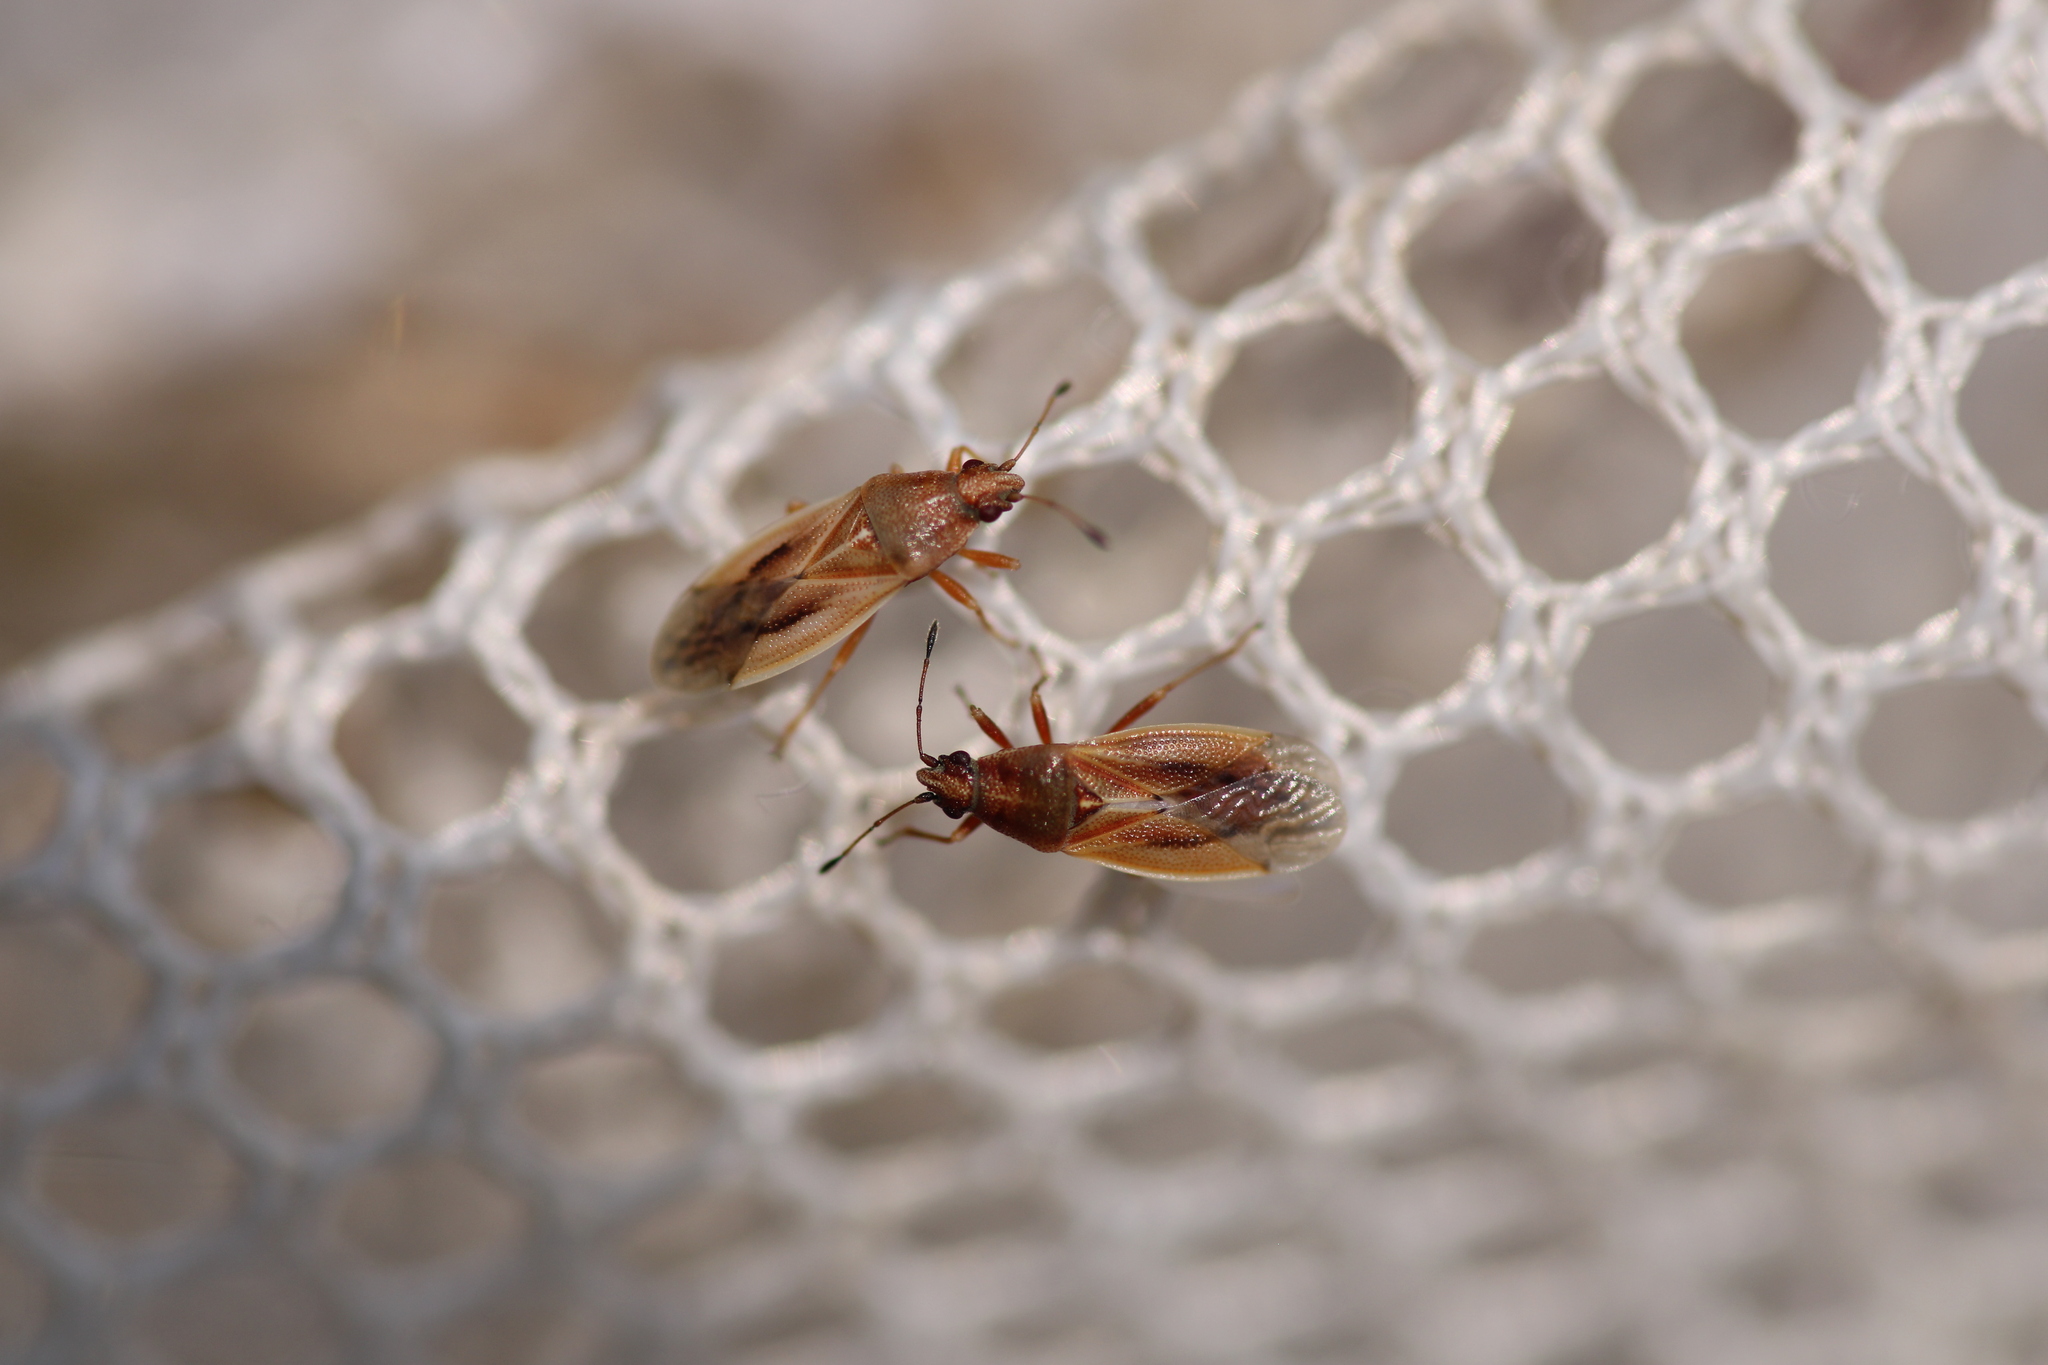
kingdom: Animalia
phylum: Arthropoda
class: Insecta
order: Hemiptera
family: Cymidae
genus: Cymus
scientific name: Cymus glandicolor
